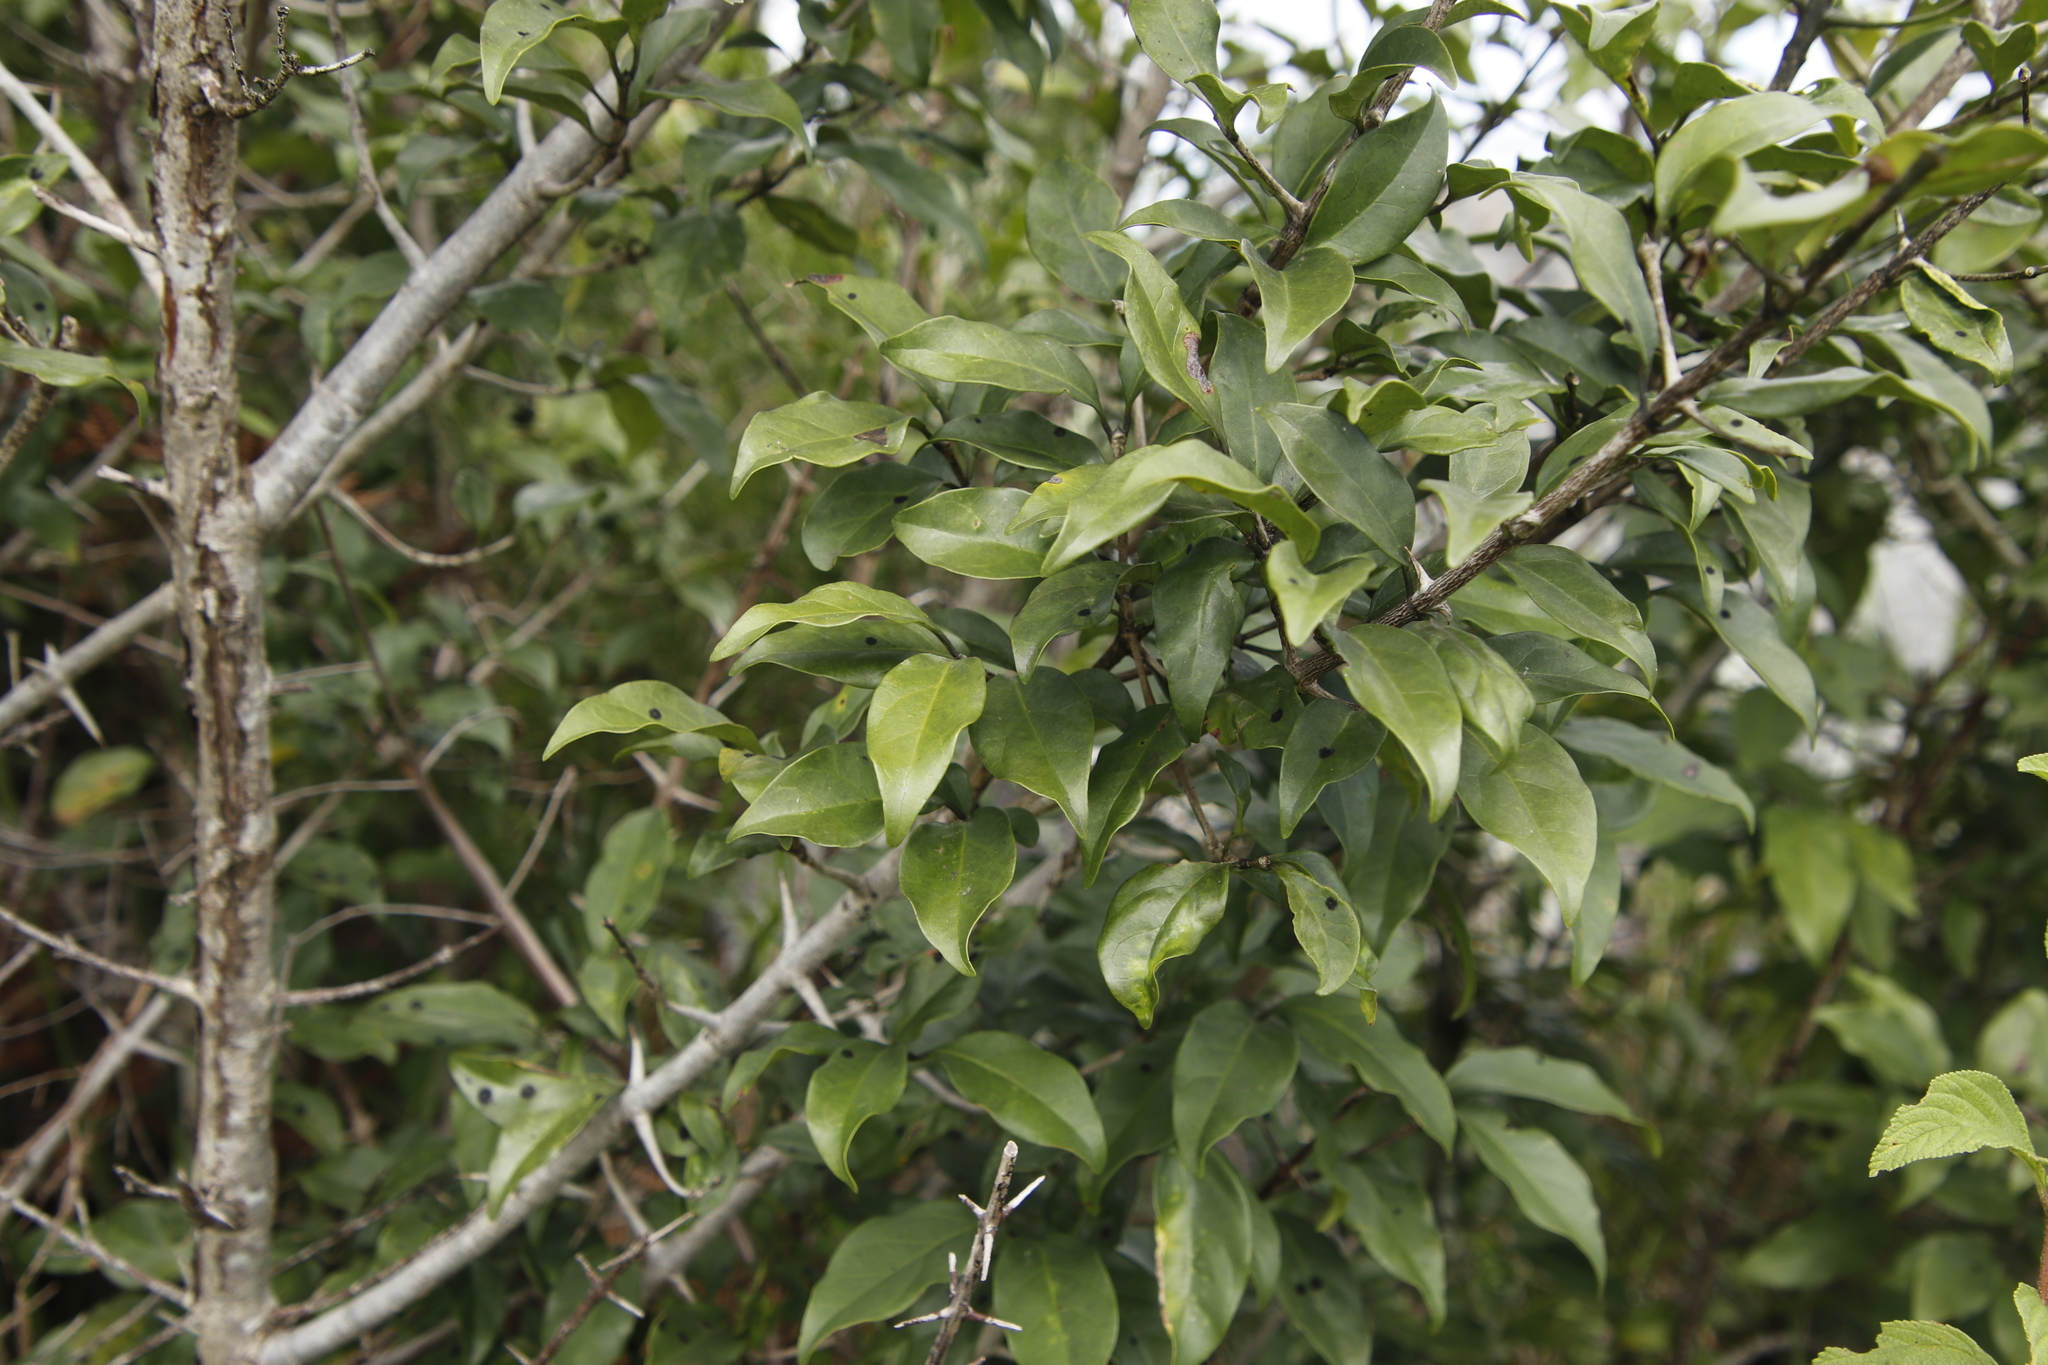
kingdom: Plantae
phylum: Tracheophyta
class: Magnoliopsida
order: Gentianales
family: Rubiaceae
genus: Canthium
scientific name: Canthium inerme
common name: Unarmed turkey-berry
